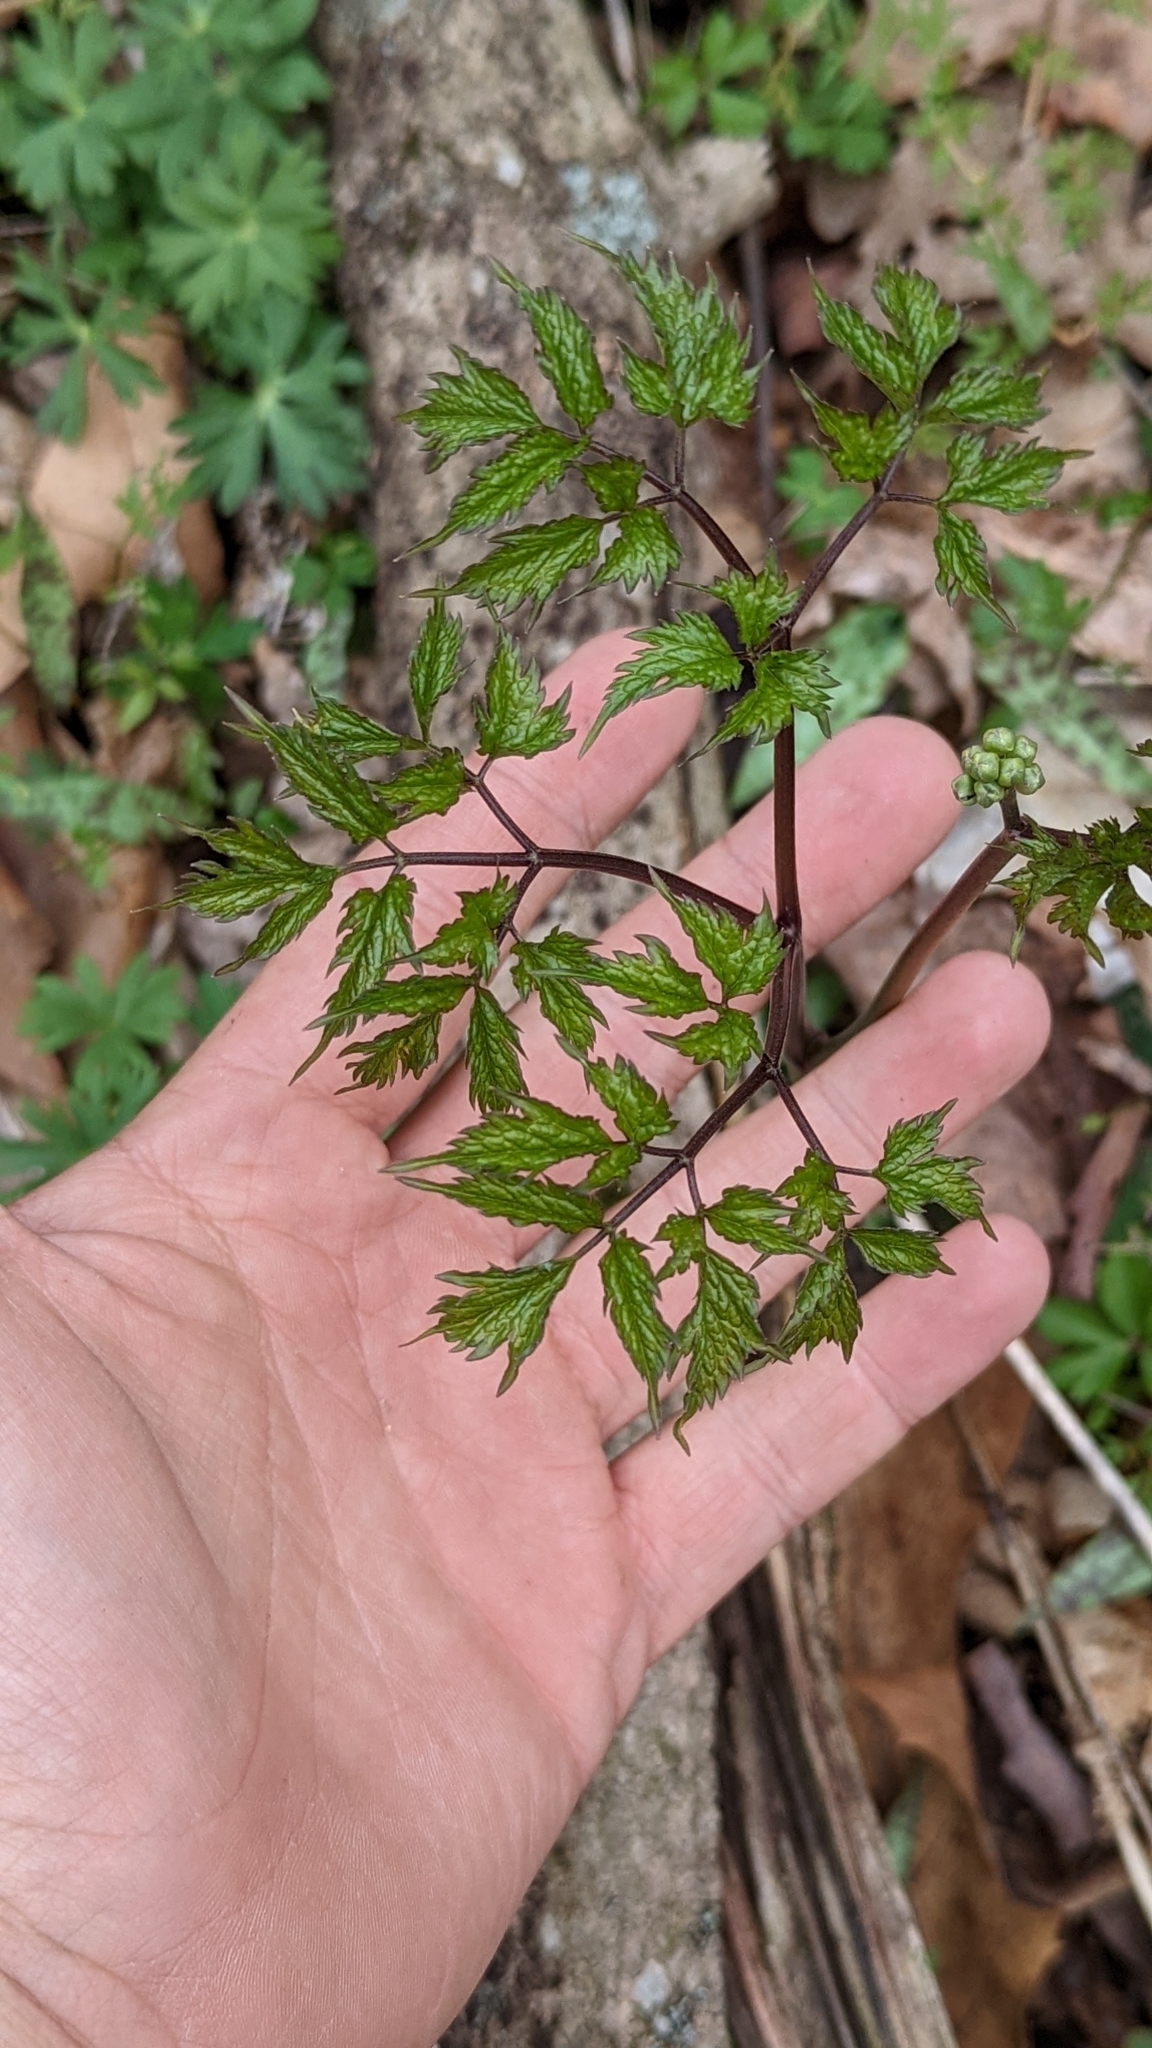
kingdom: Plantae
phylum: Tracheophyta
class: Magnoliopsida
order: Ranunculales
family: Ranunculaceae
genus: Actaea
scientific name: Actaea pachypoda
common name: Doll's-eyes
